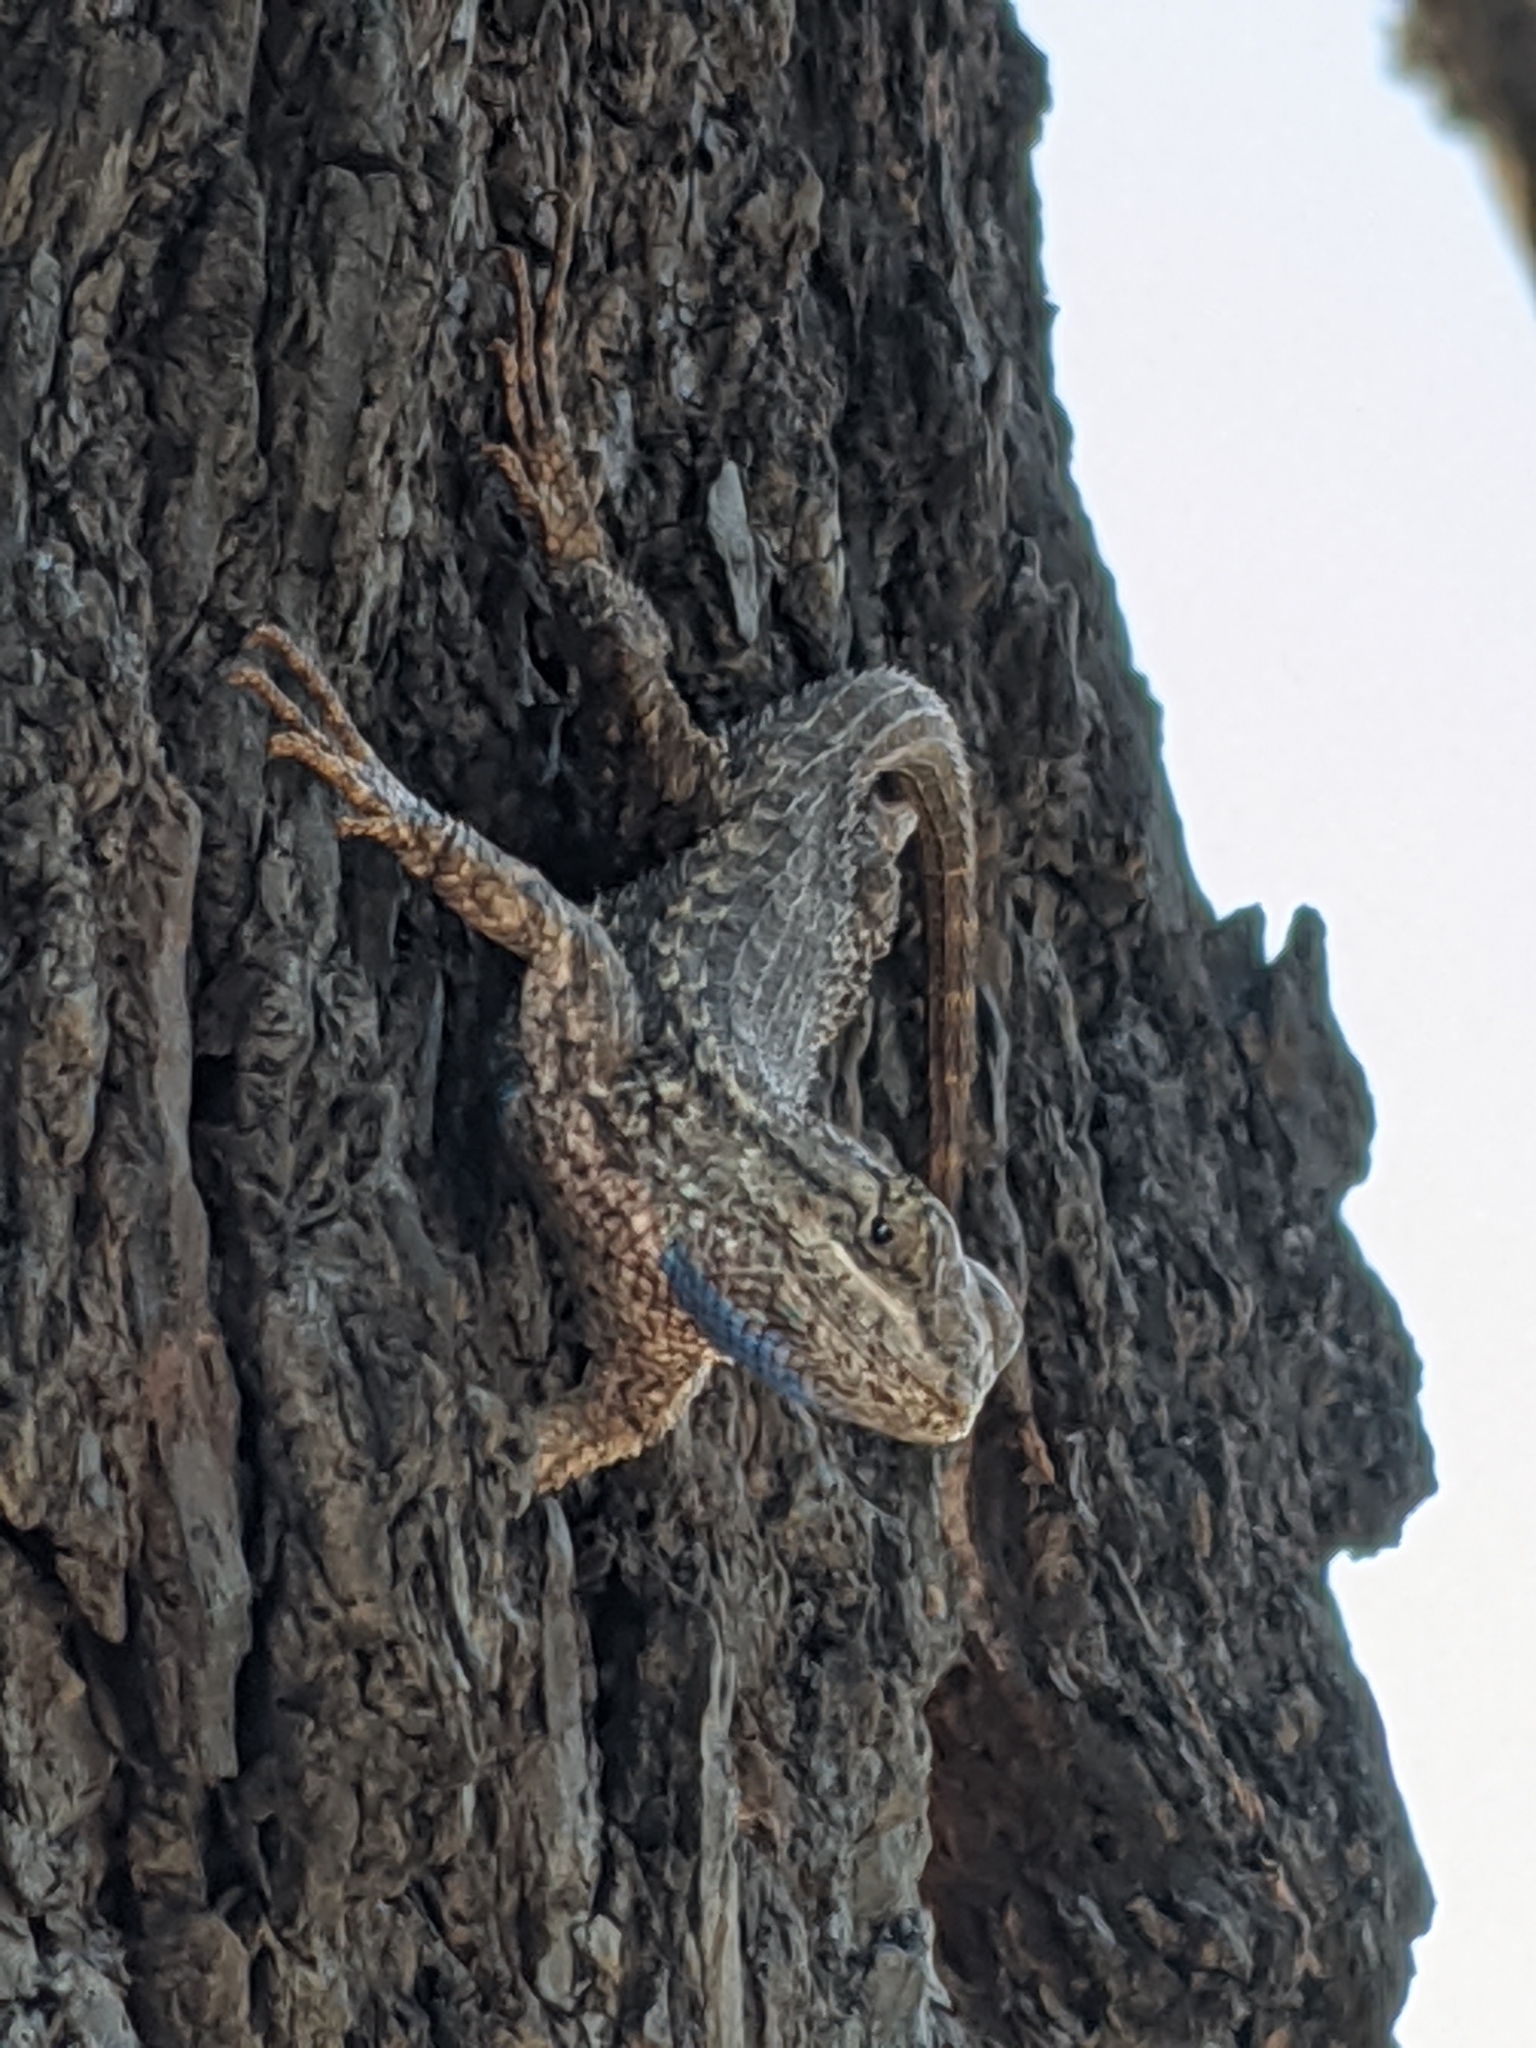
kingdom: Animalia
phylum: Chordata
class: Squamata
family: Phrynosomatidae
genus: Sceloporus
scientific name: Sceloporus occidentalis
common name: Western fence lizard
